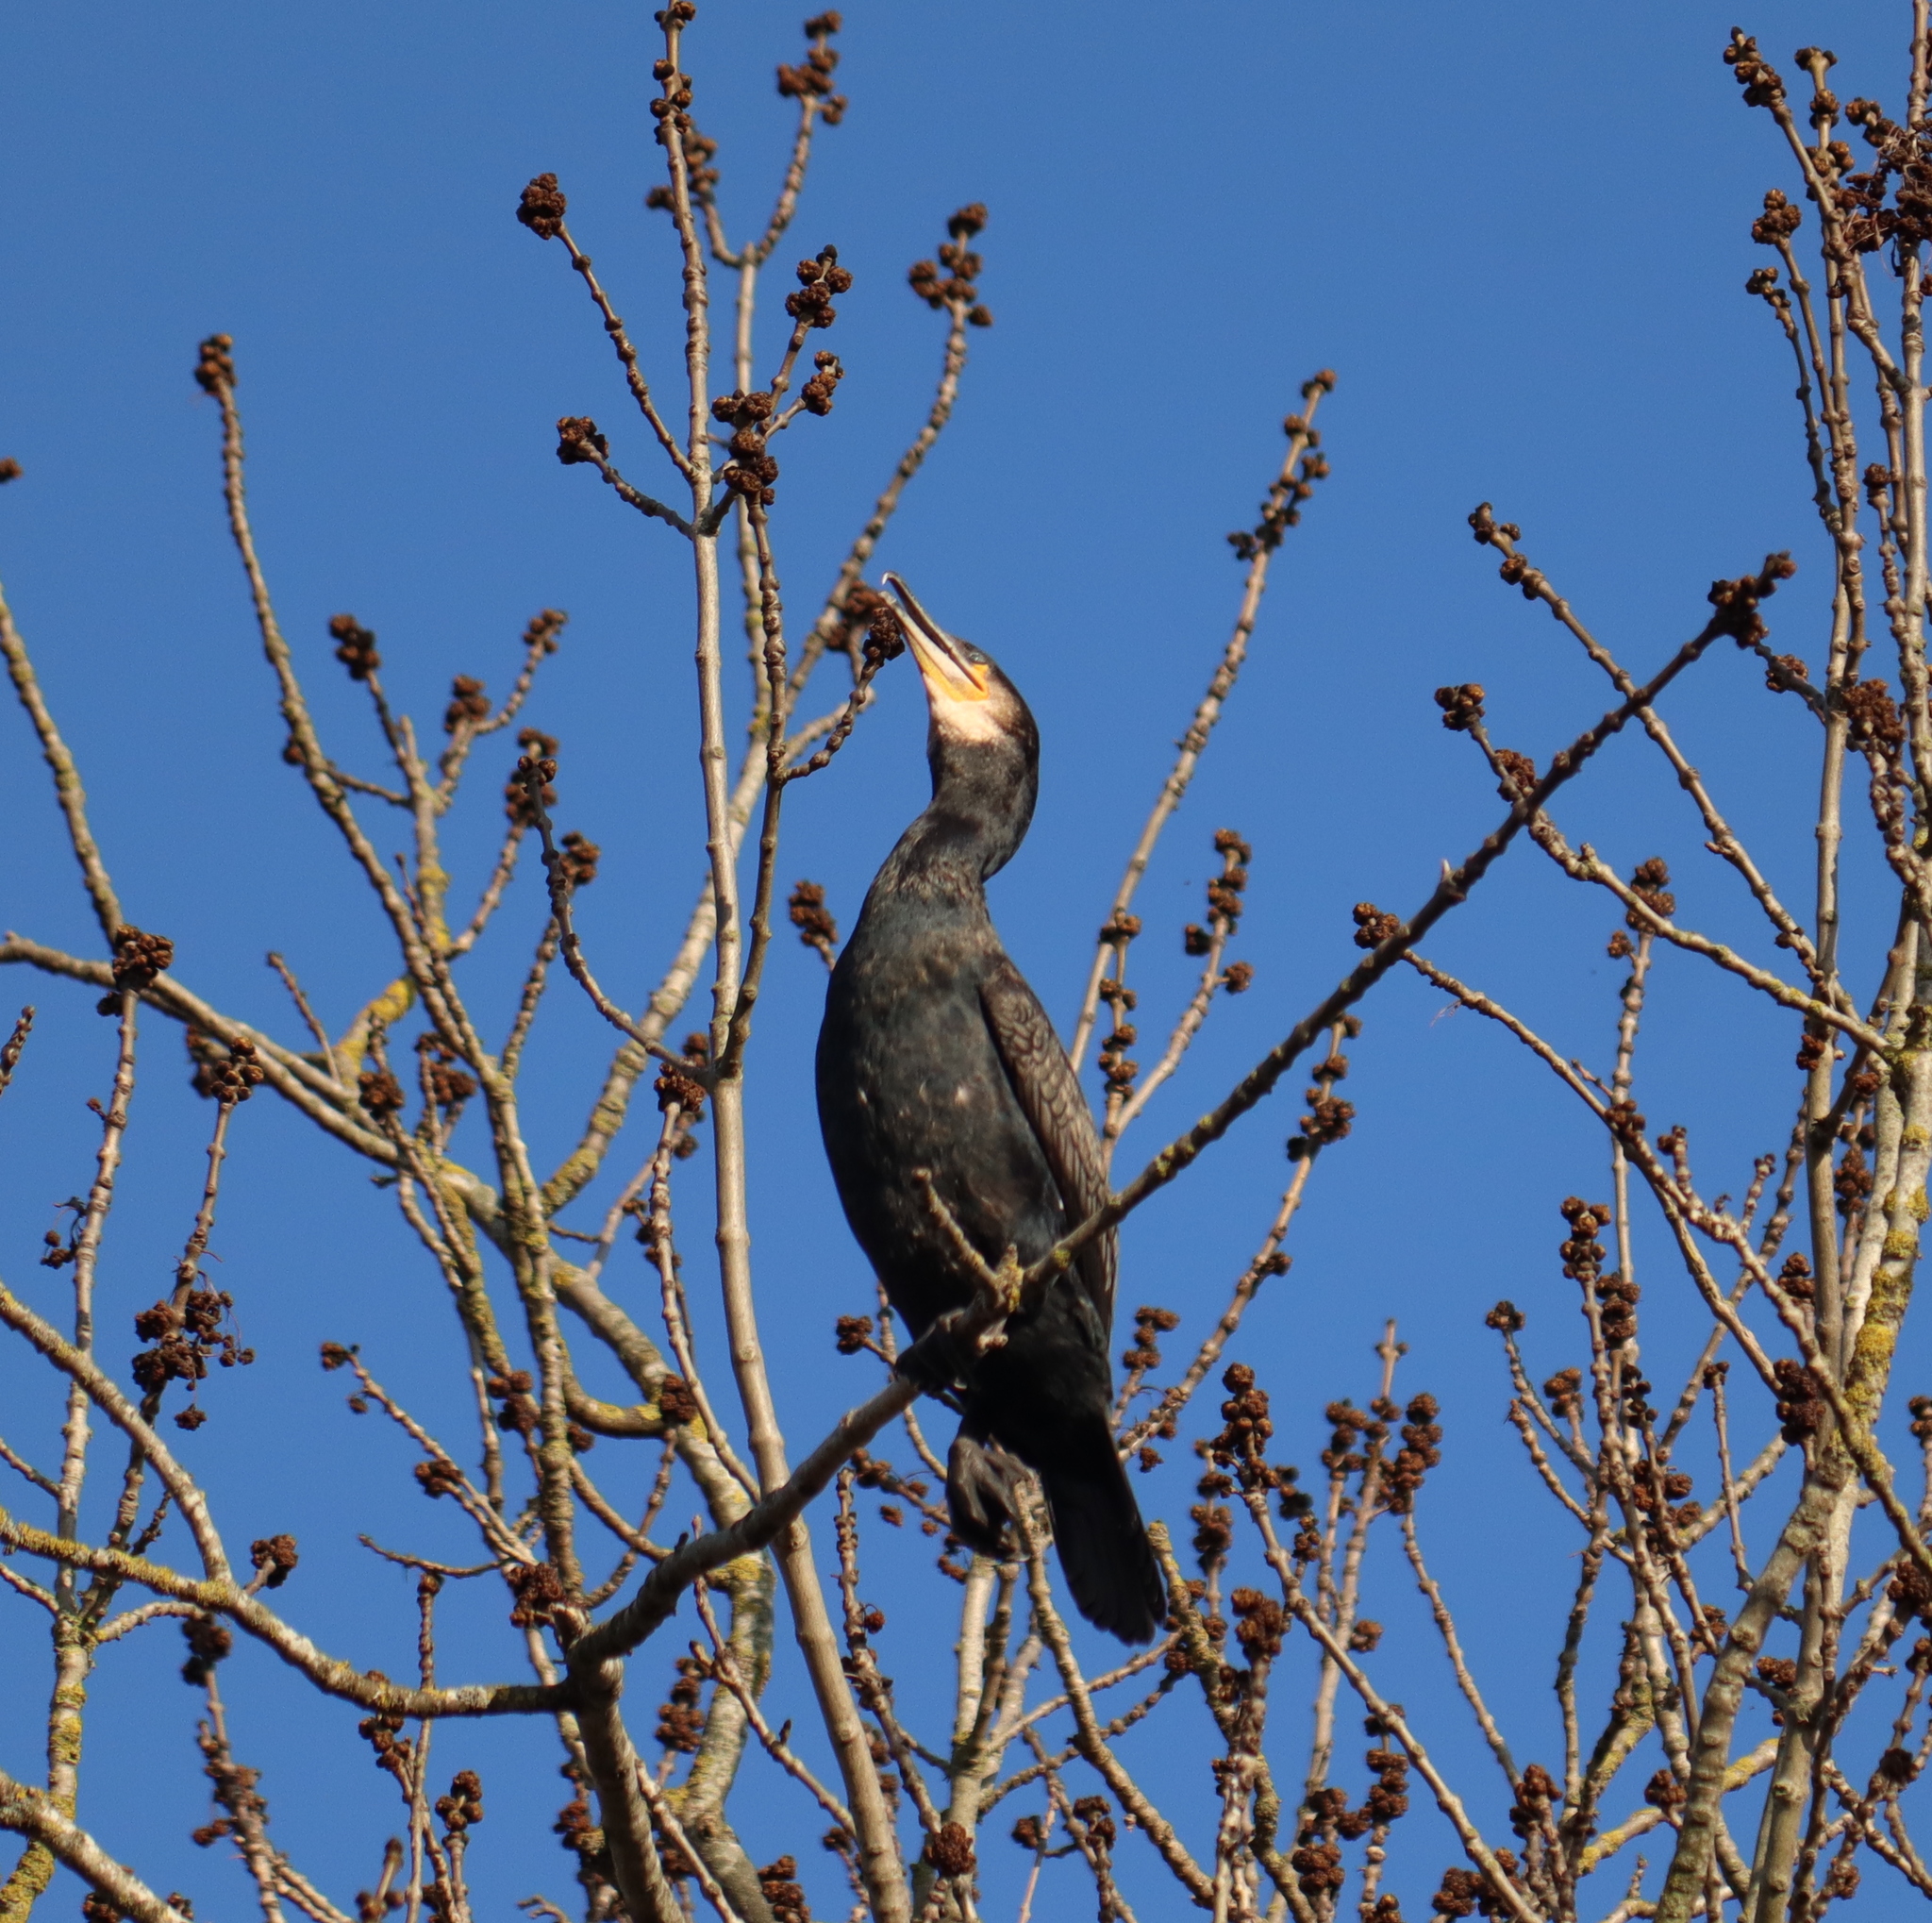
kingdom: Animalia
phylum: Chordata
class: Aves
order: Suliformes
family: Phalacrocoracidae
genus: Phalacrocorax
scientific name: Phalacrocorax carbo
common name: Great cormorant
